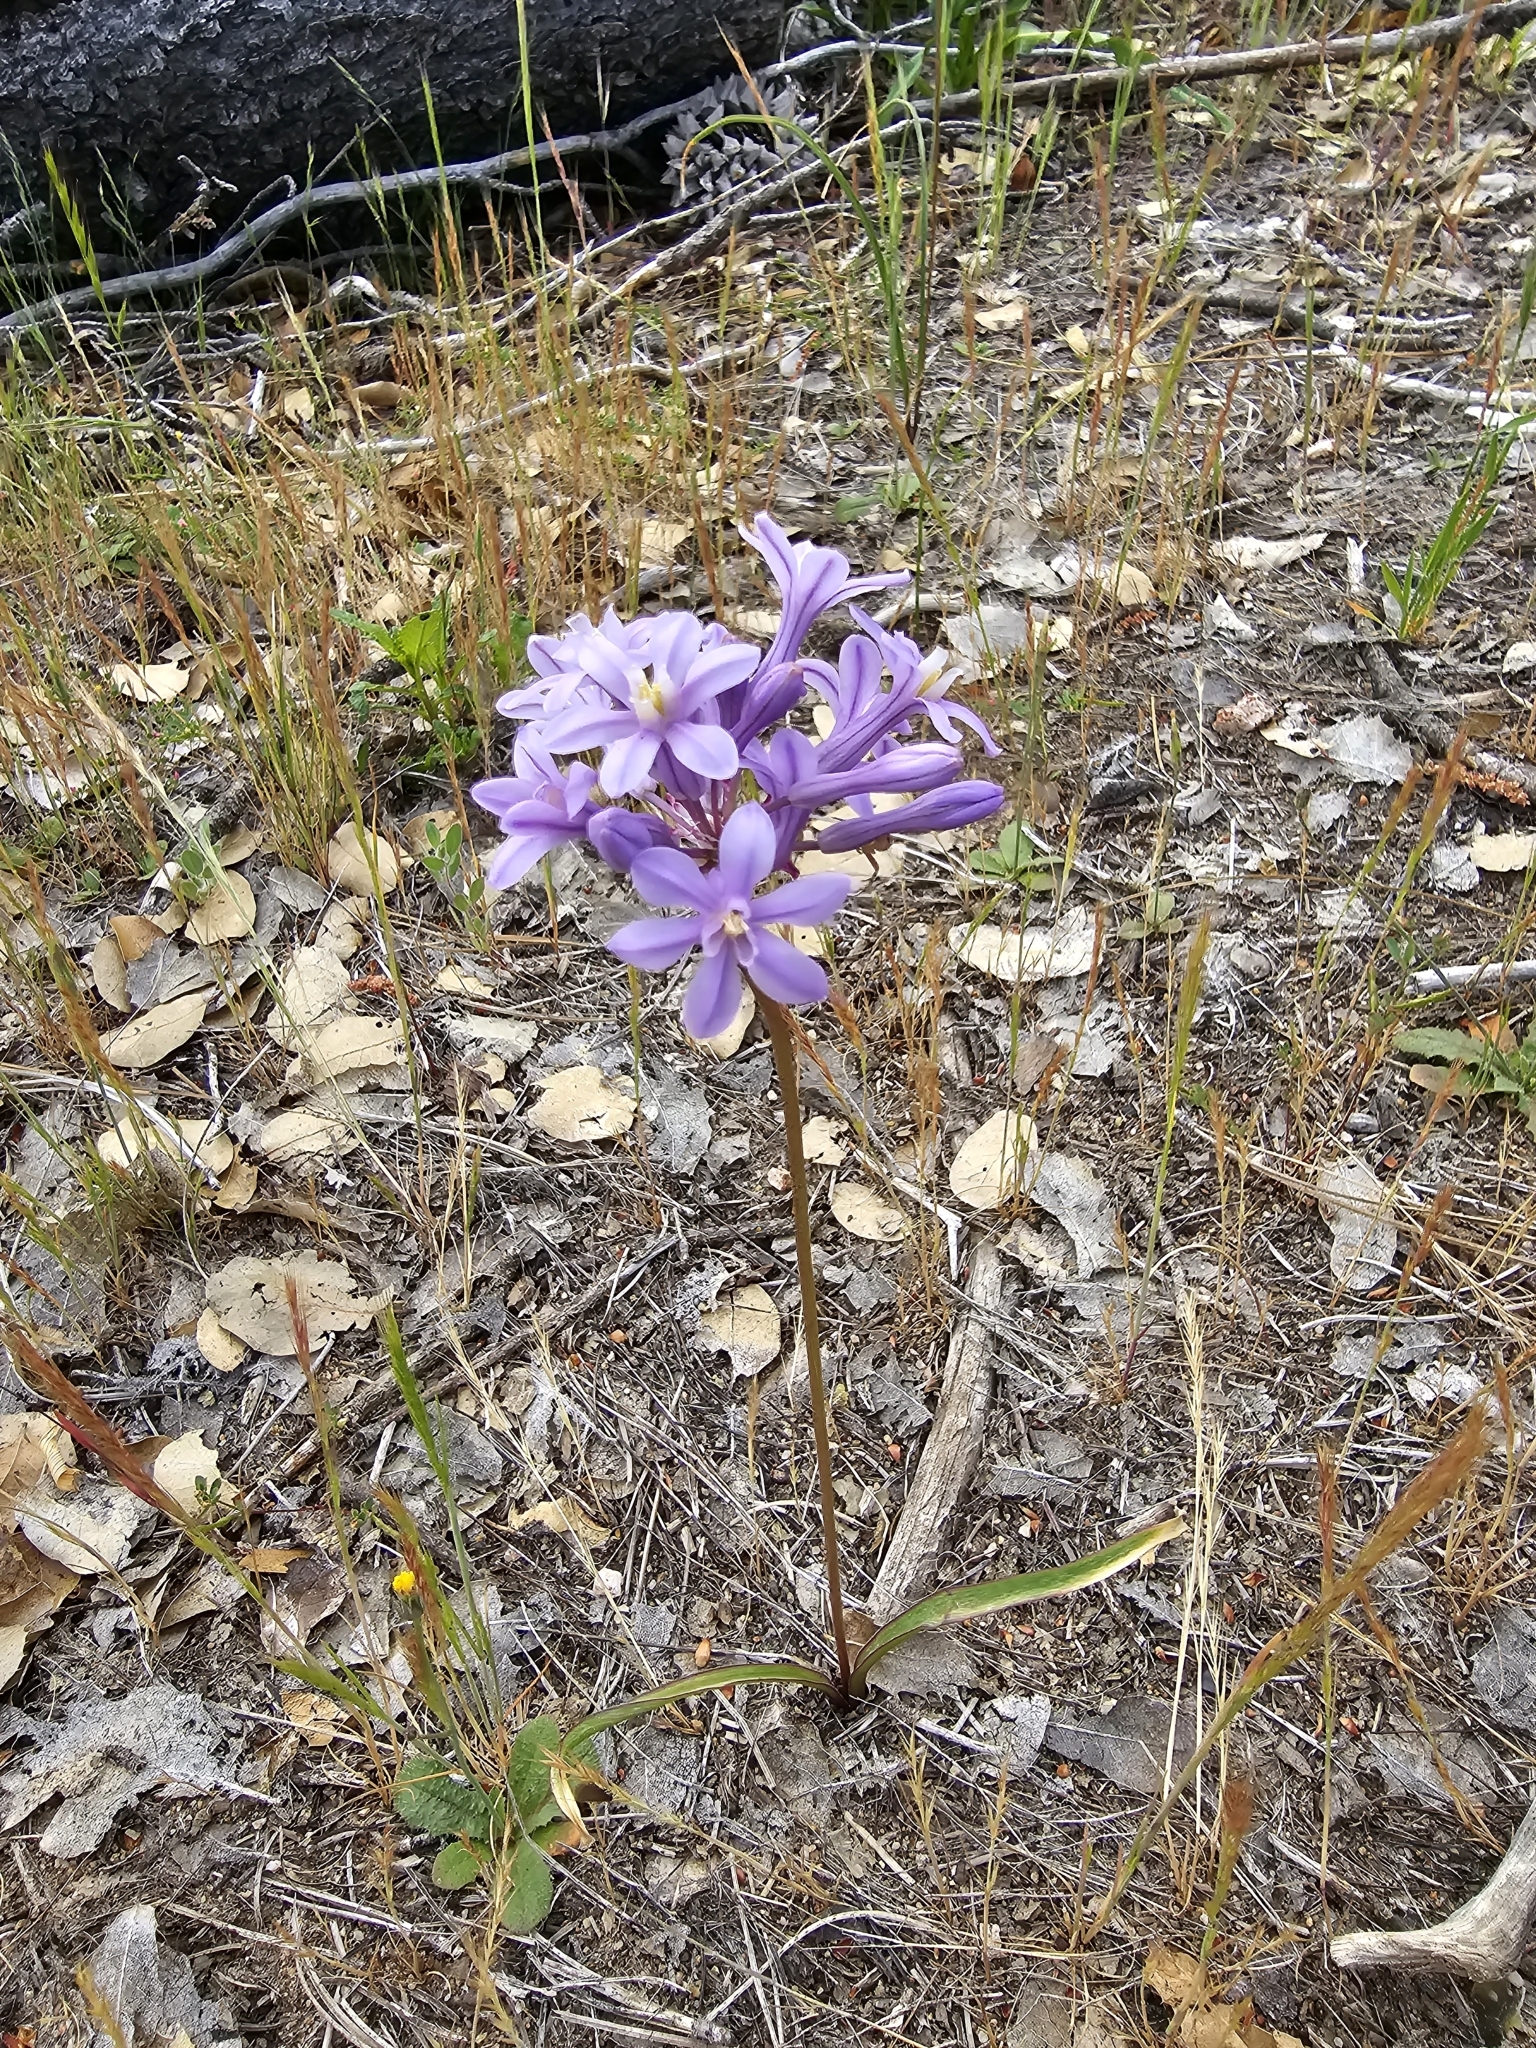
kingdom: Plantae
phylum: Tracheophyta
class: Liliopsida
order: Asparagales
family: Asparagaceae
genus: Dichelostemma
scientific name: Dichelostemma multiflorum
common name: Round-tooth ookow
